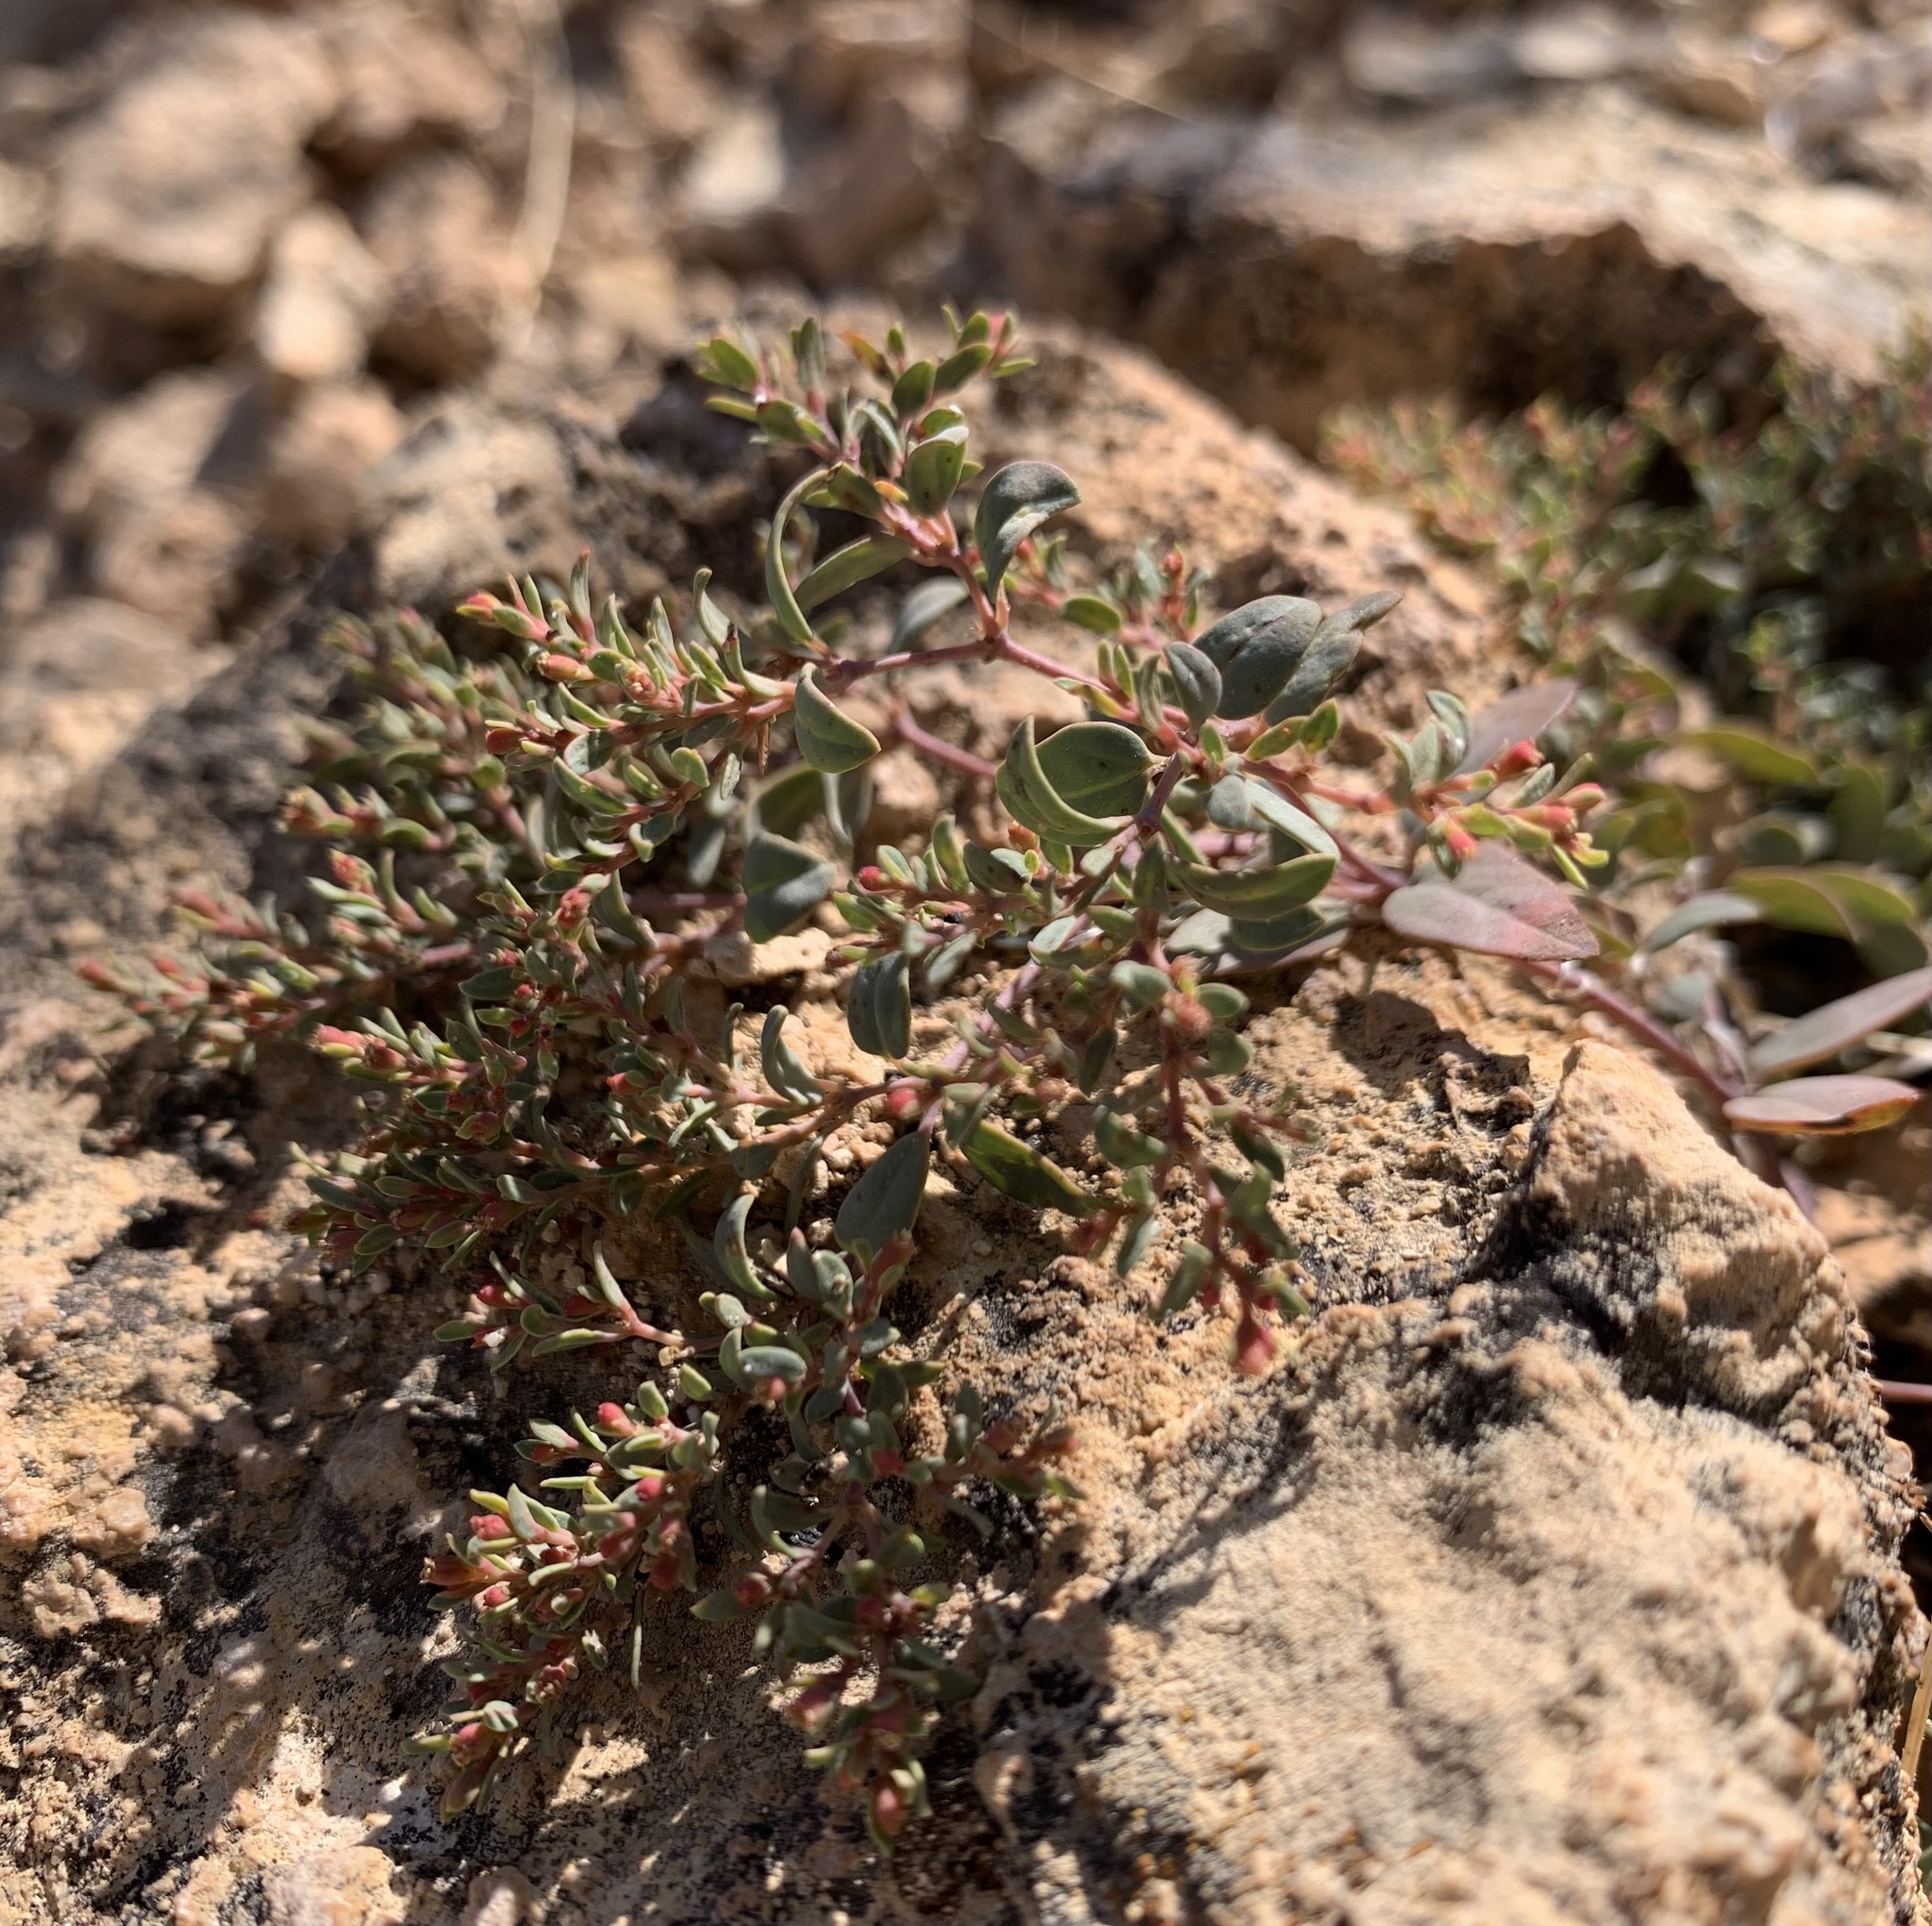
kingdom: Plantae
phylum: Tracheophyta
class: Magnoliopsida
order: Malpighiales
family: Euphorbiaceae
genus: Euphorbia
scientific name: Euphorbia fendleri
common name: Fendler's euphorbia
